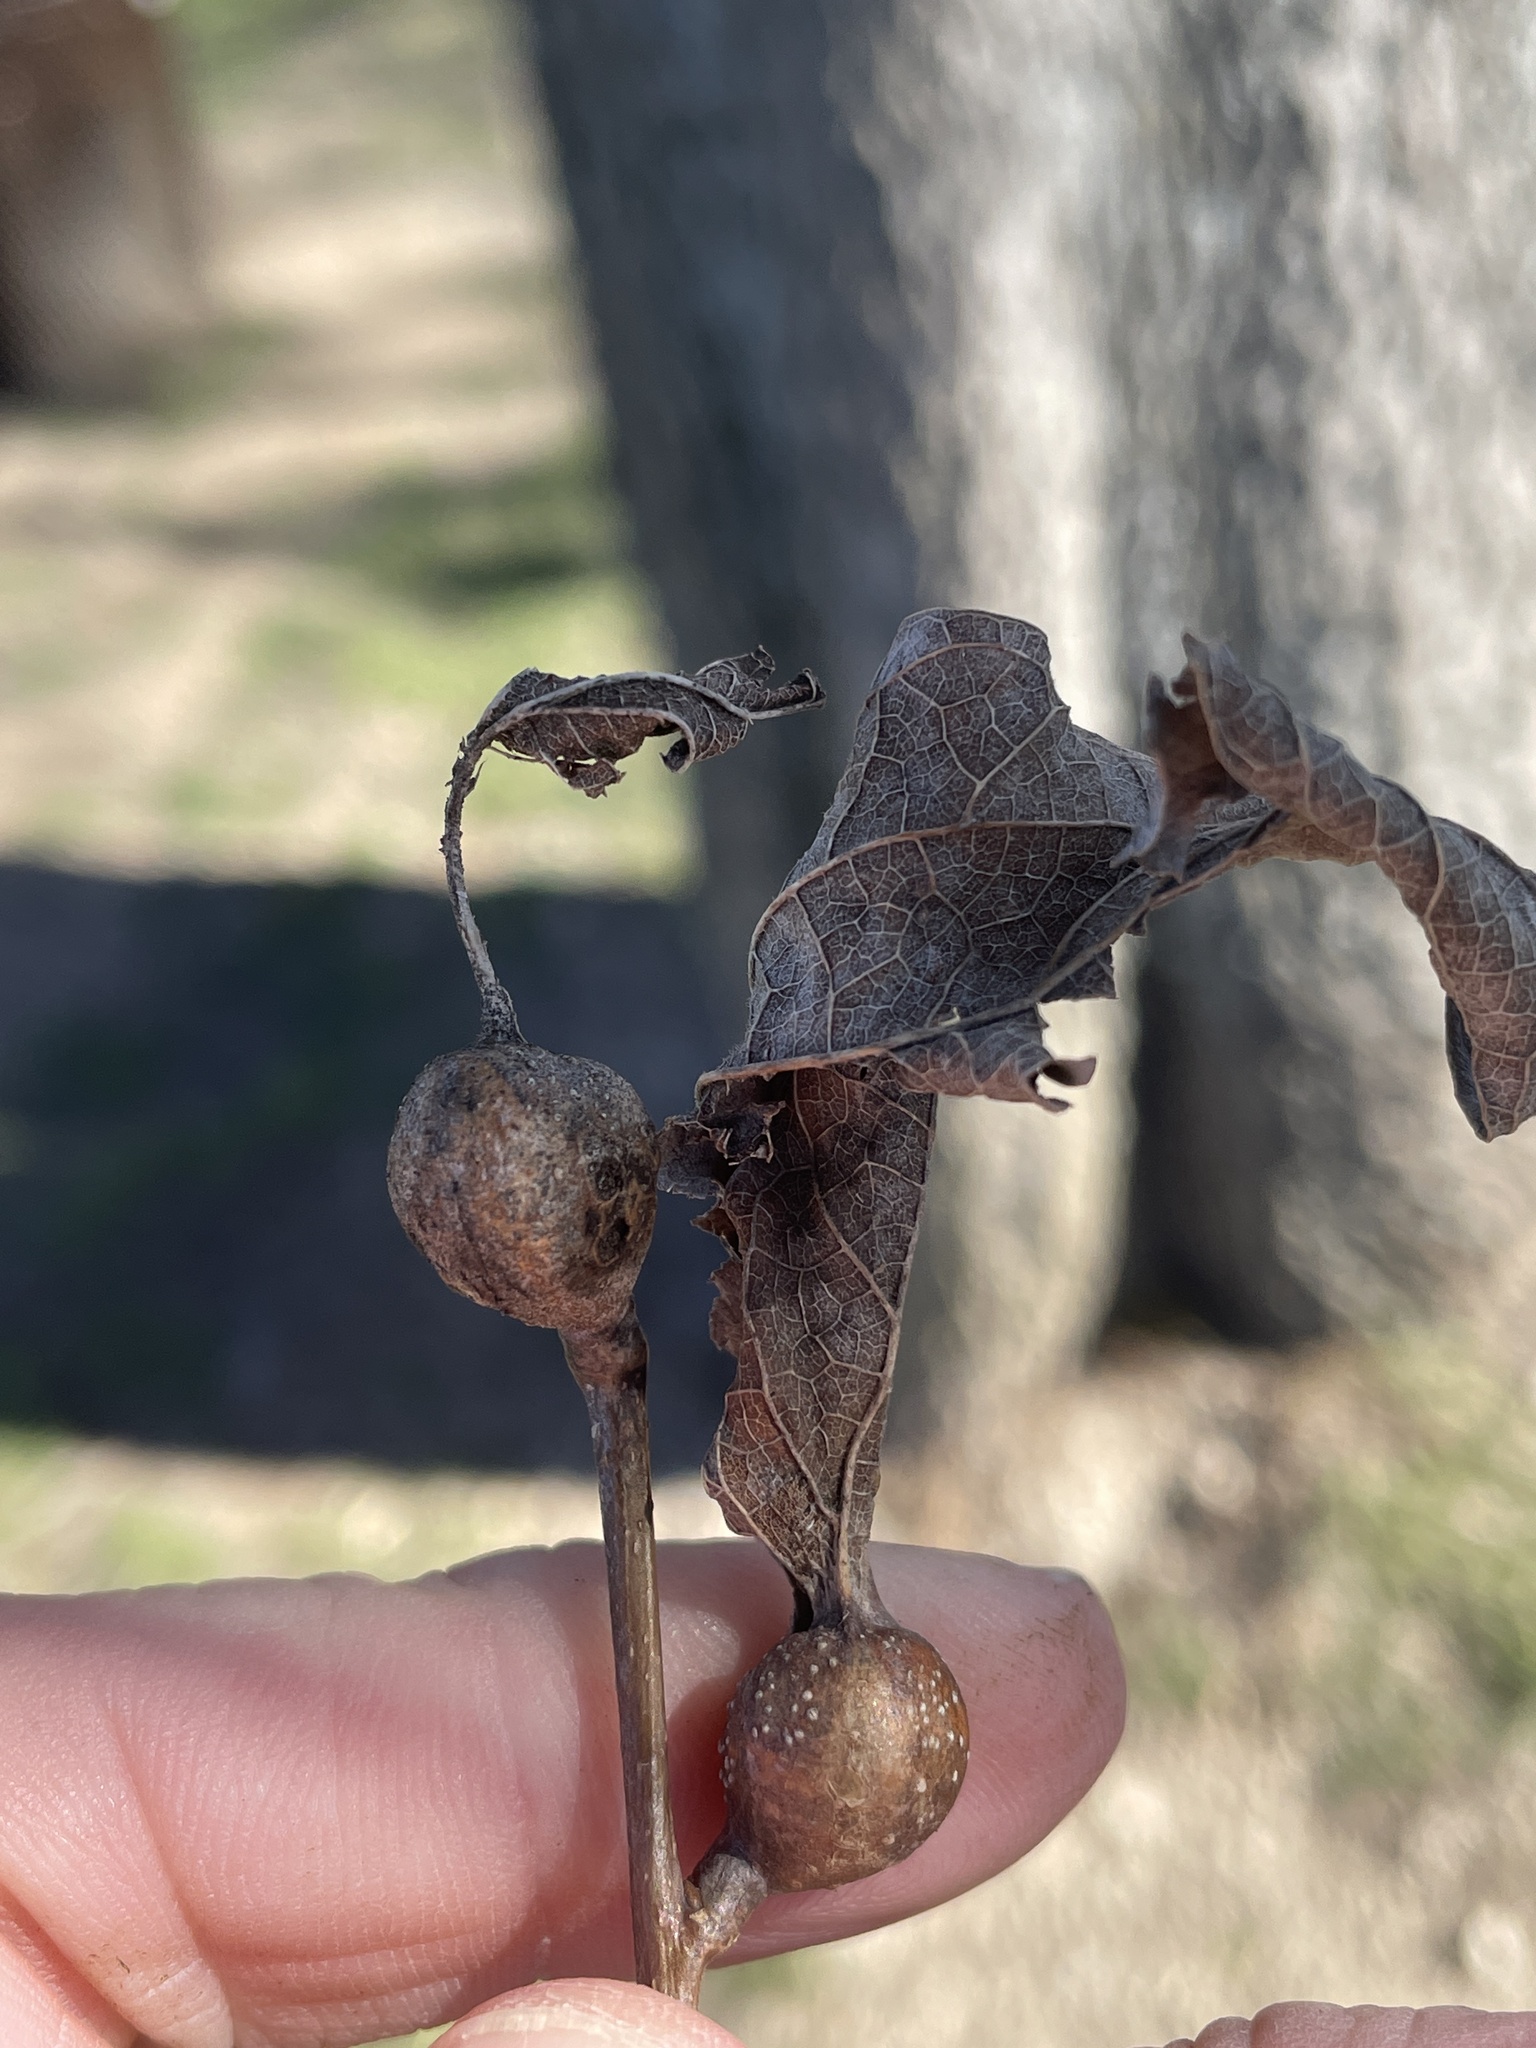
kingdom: Animalia
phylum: Arthropoda
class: Insecta
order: Hemiptera
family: Aphalaridae
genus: Pachypsylla
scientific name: Pachypsylla venusta
